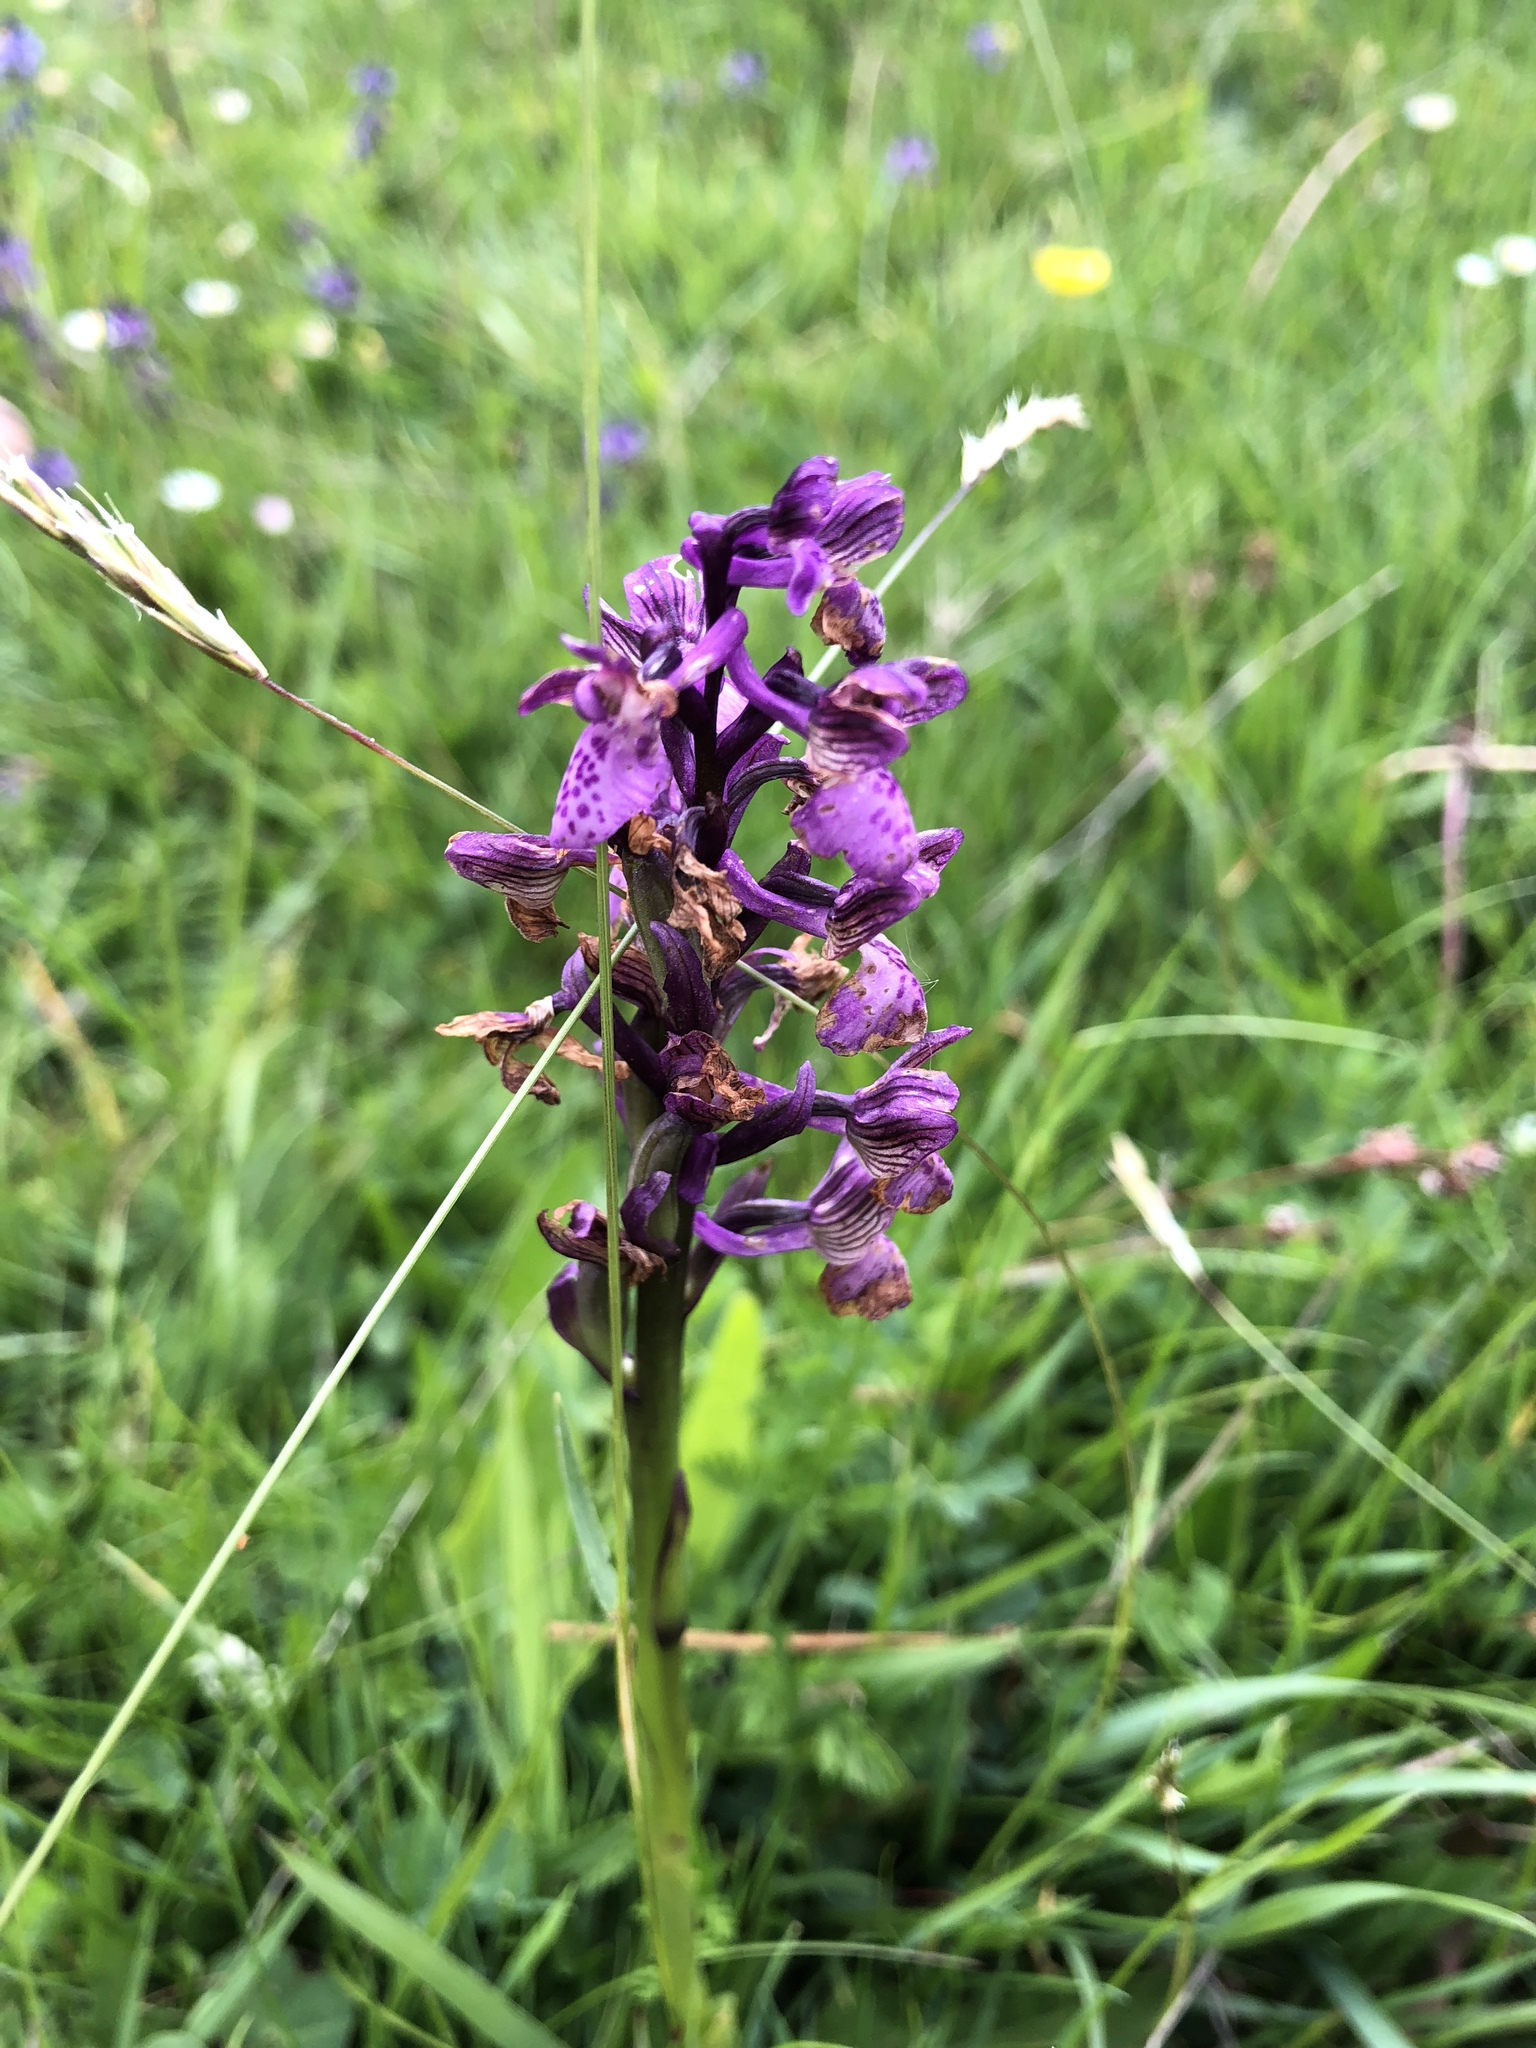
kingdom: Plantae
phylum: Tracheophyta
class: Liliopsida
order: Asparagales
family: Orchidaceae
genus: Anacamptis
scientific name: Anacamptis morio
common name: Green-winged orchid
